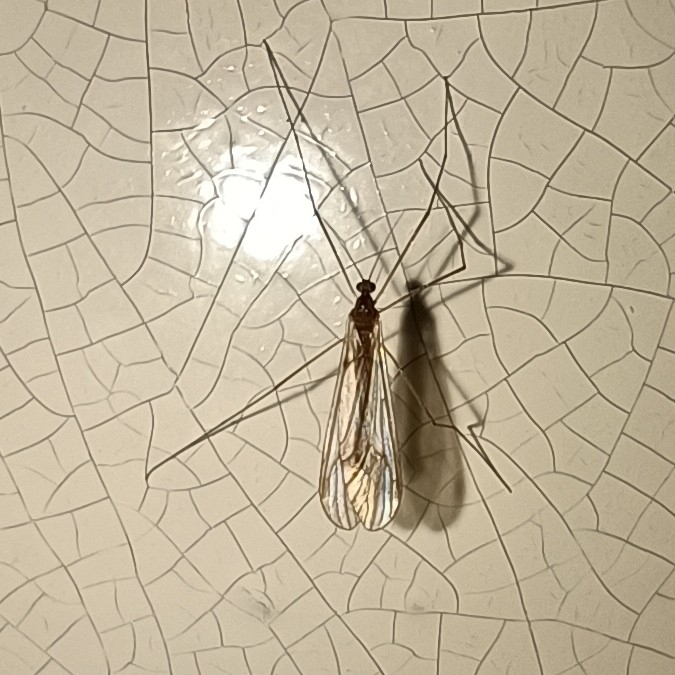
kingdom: Animalia
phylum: Arthropoda
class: Insecta
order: Diptera
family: Trichoceridae
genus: Trichocera
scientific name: Trichocera
